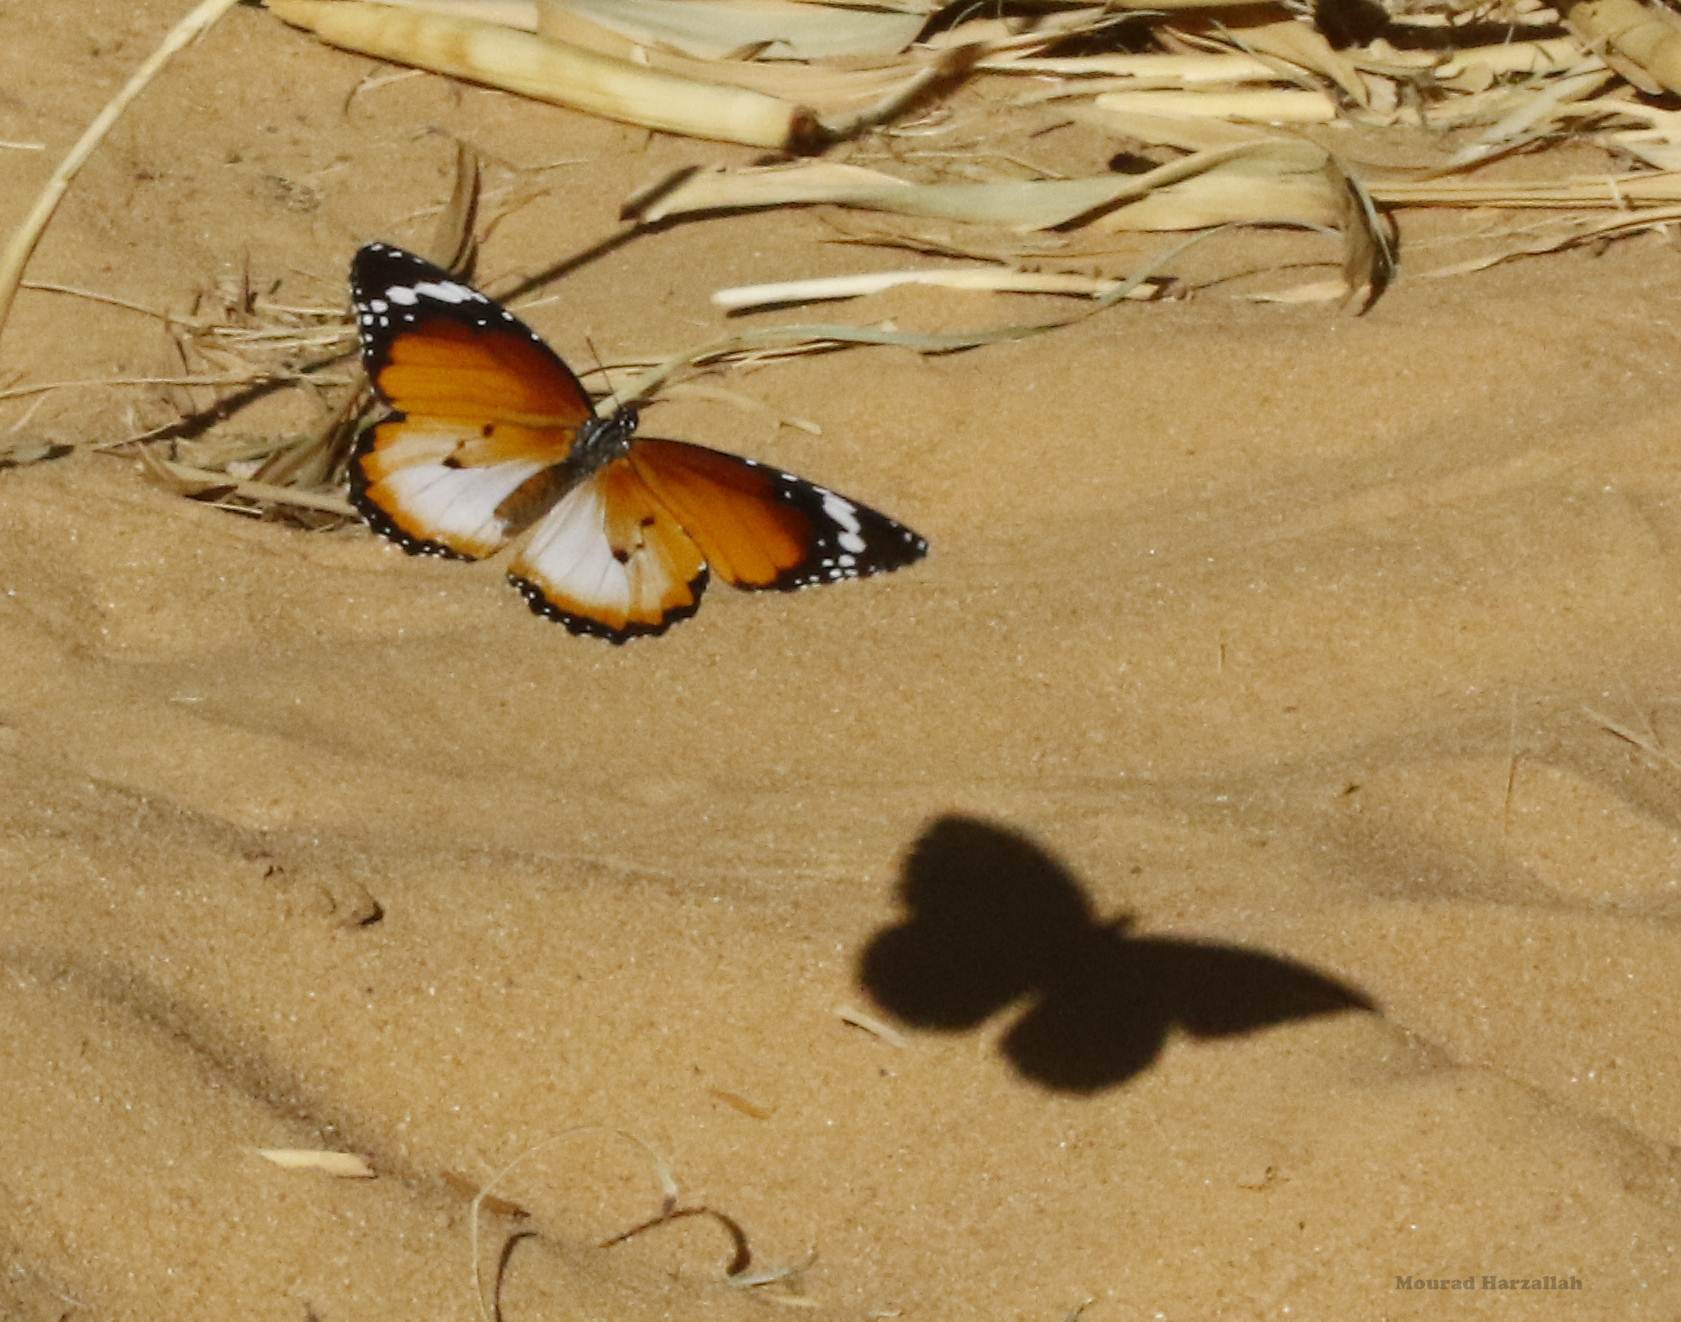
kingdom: Animalia
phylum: Arthropoda
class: Insecta
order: Lepidoptera
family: Nymphalidae
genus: Danaus
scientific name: Danaus chrysippus
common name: Plain tiger
